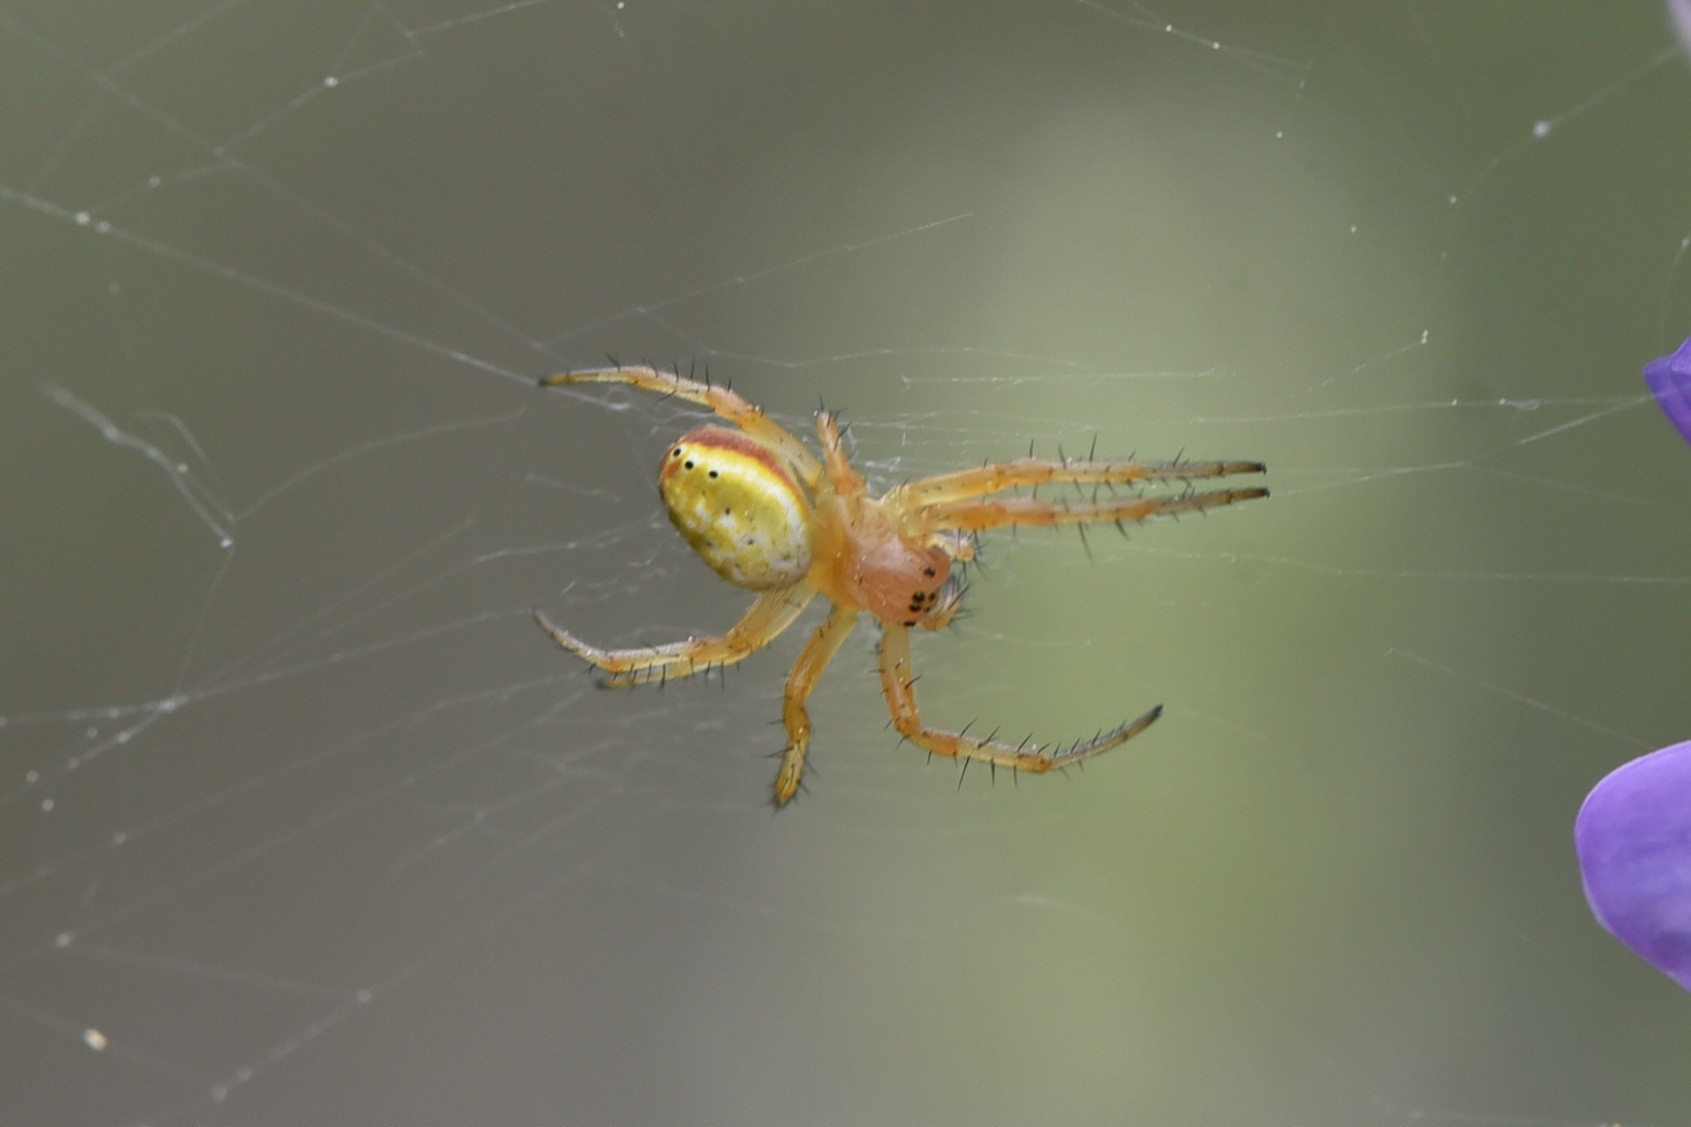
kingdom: Animalia
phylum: Arthropoda
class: Arachnida
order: Araneae
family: Araneidae
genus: Araniella
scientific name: Araniella displicata
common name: Sixspotted orb weaver
